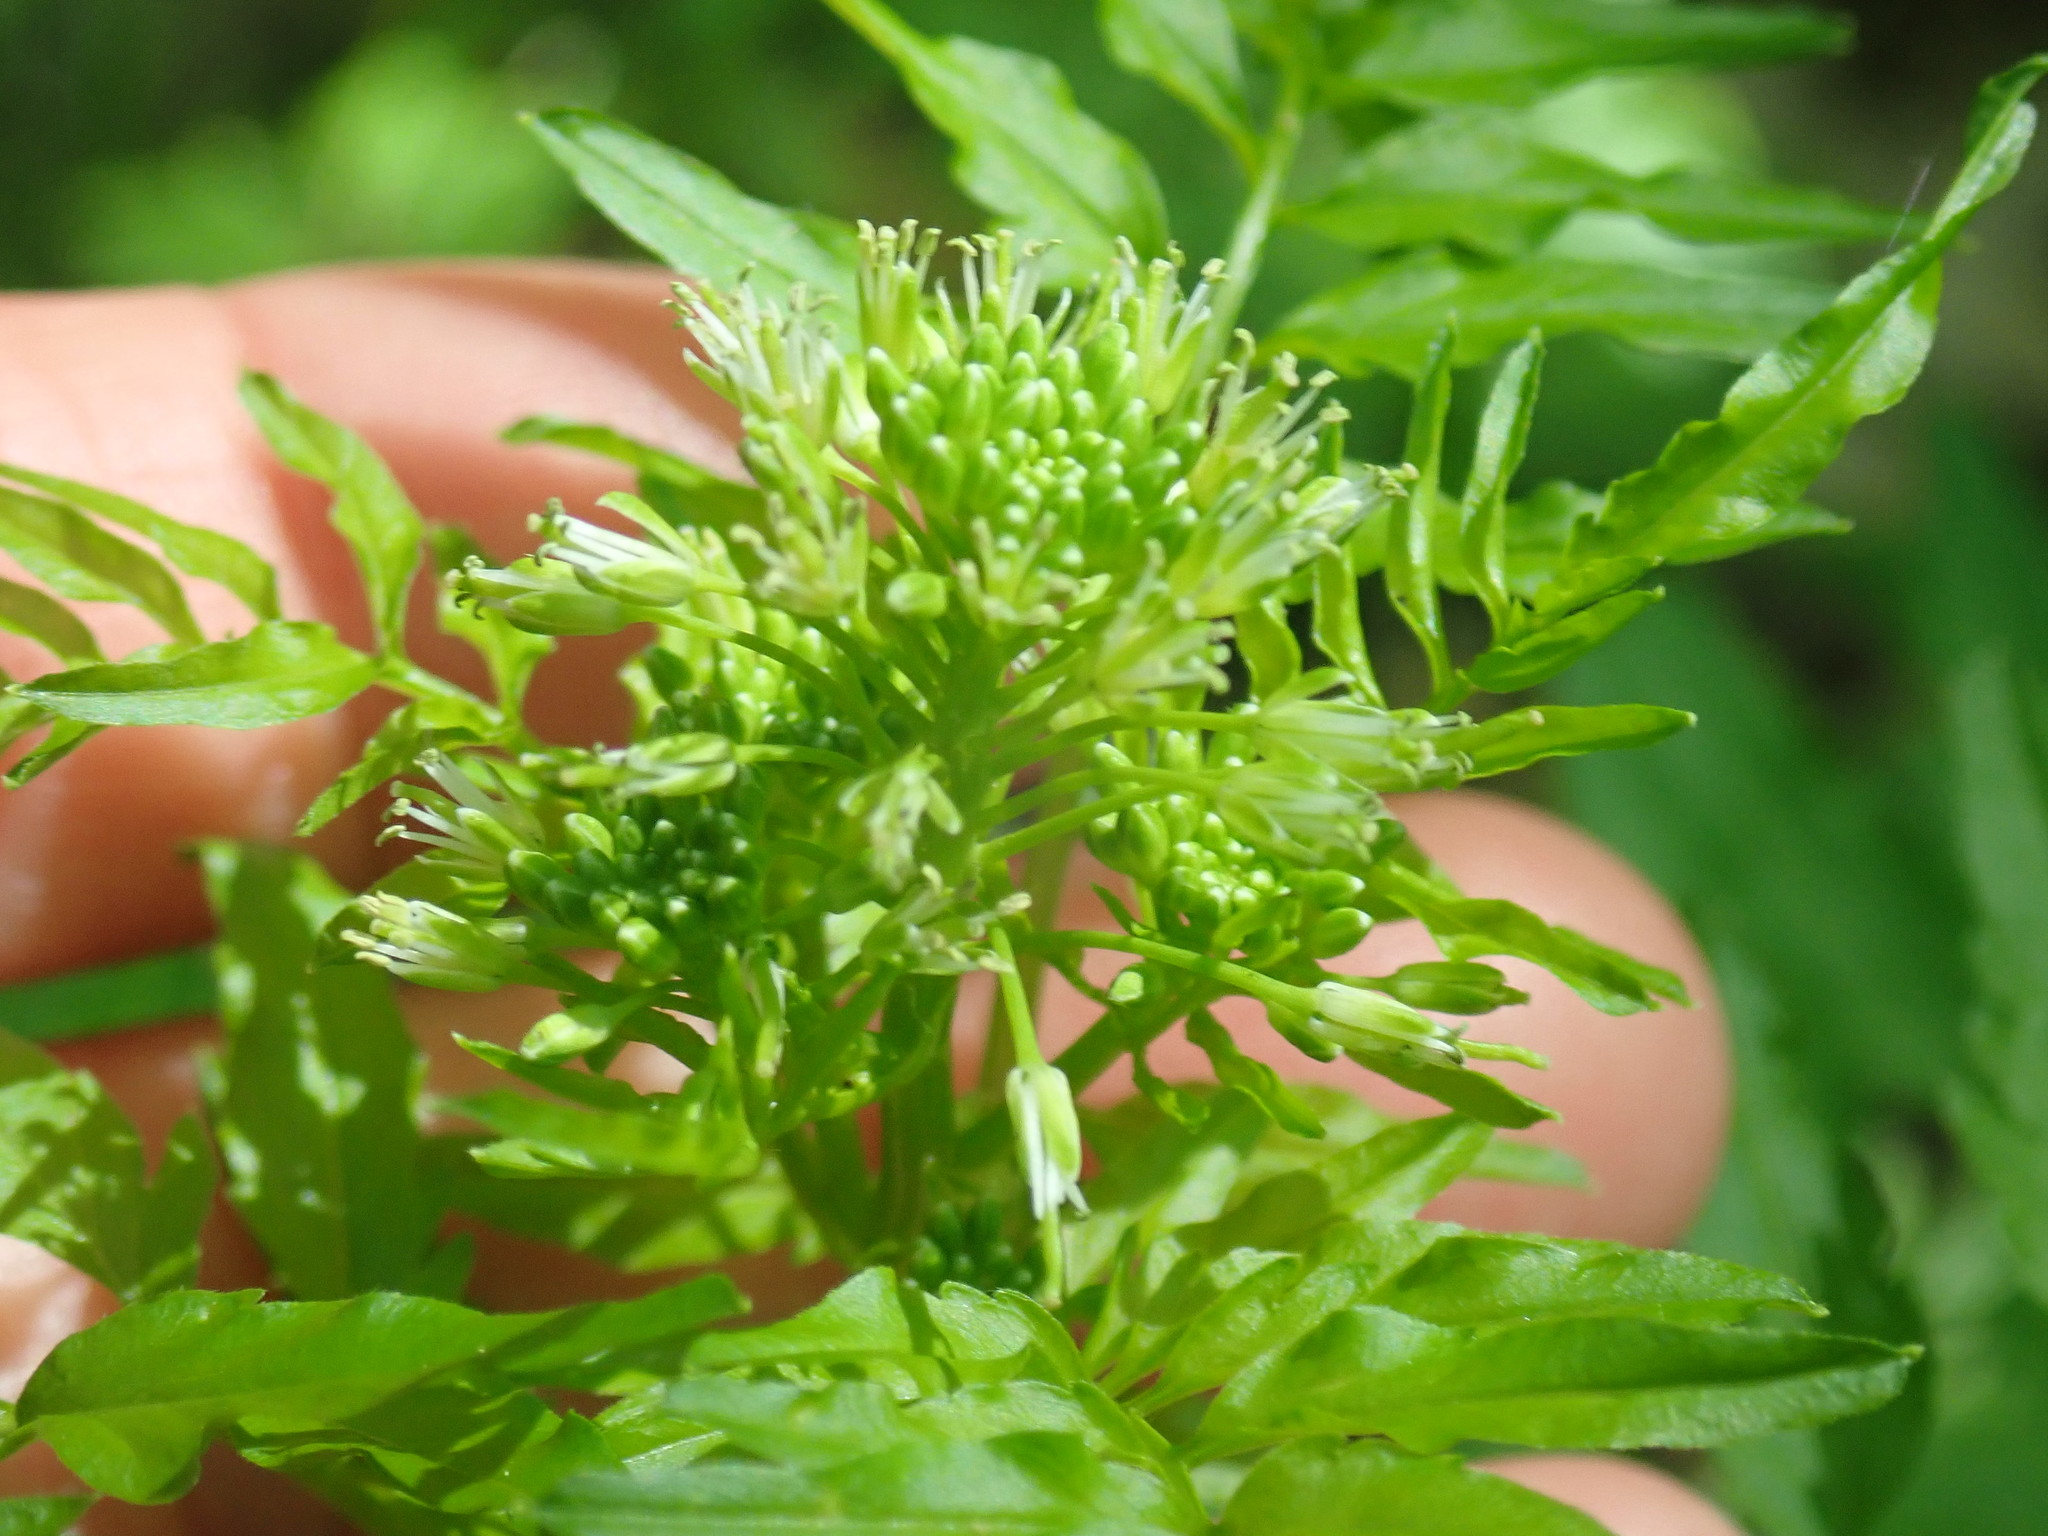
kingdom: Plantae
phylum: Tracheophyta
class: Magnoliopsida
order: Brassicales
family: Brassicaceae
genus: Cardamine
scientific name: Cardamine impatiens
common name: Narrow-leaved bitter-cress
